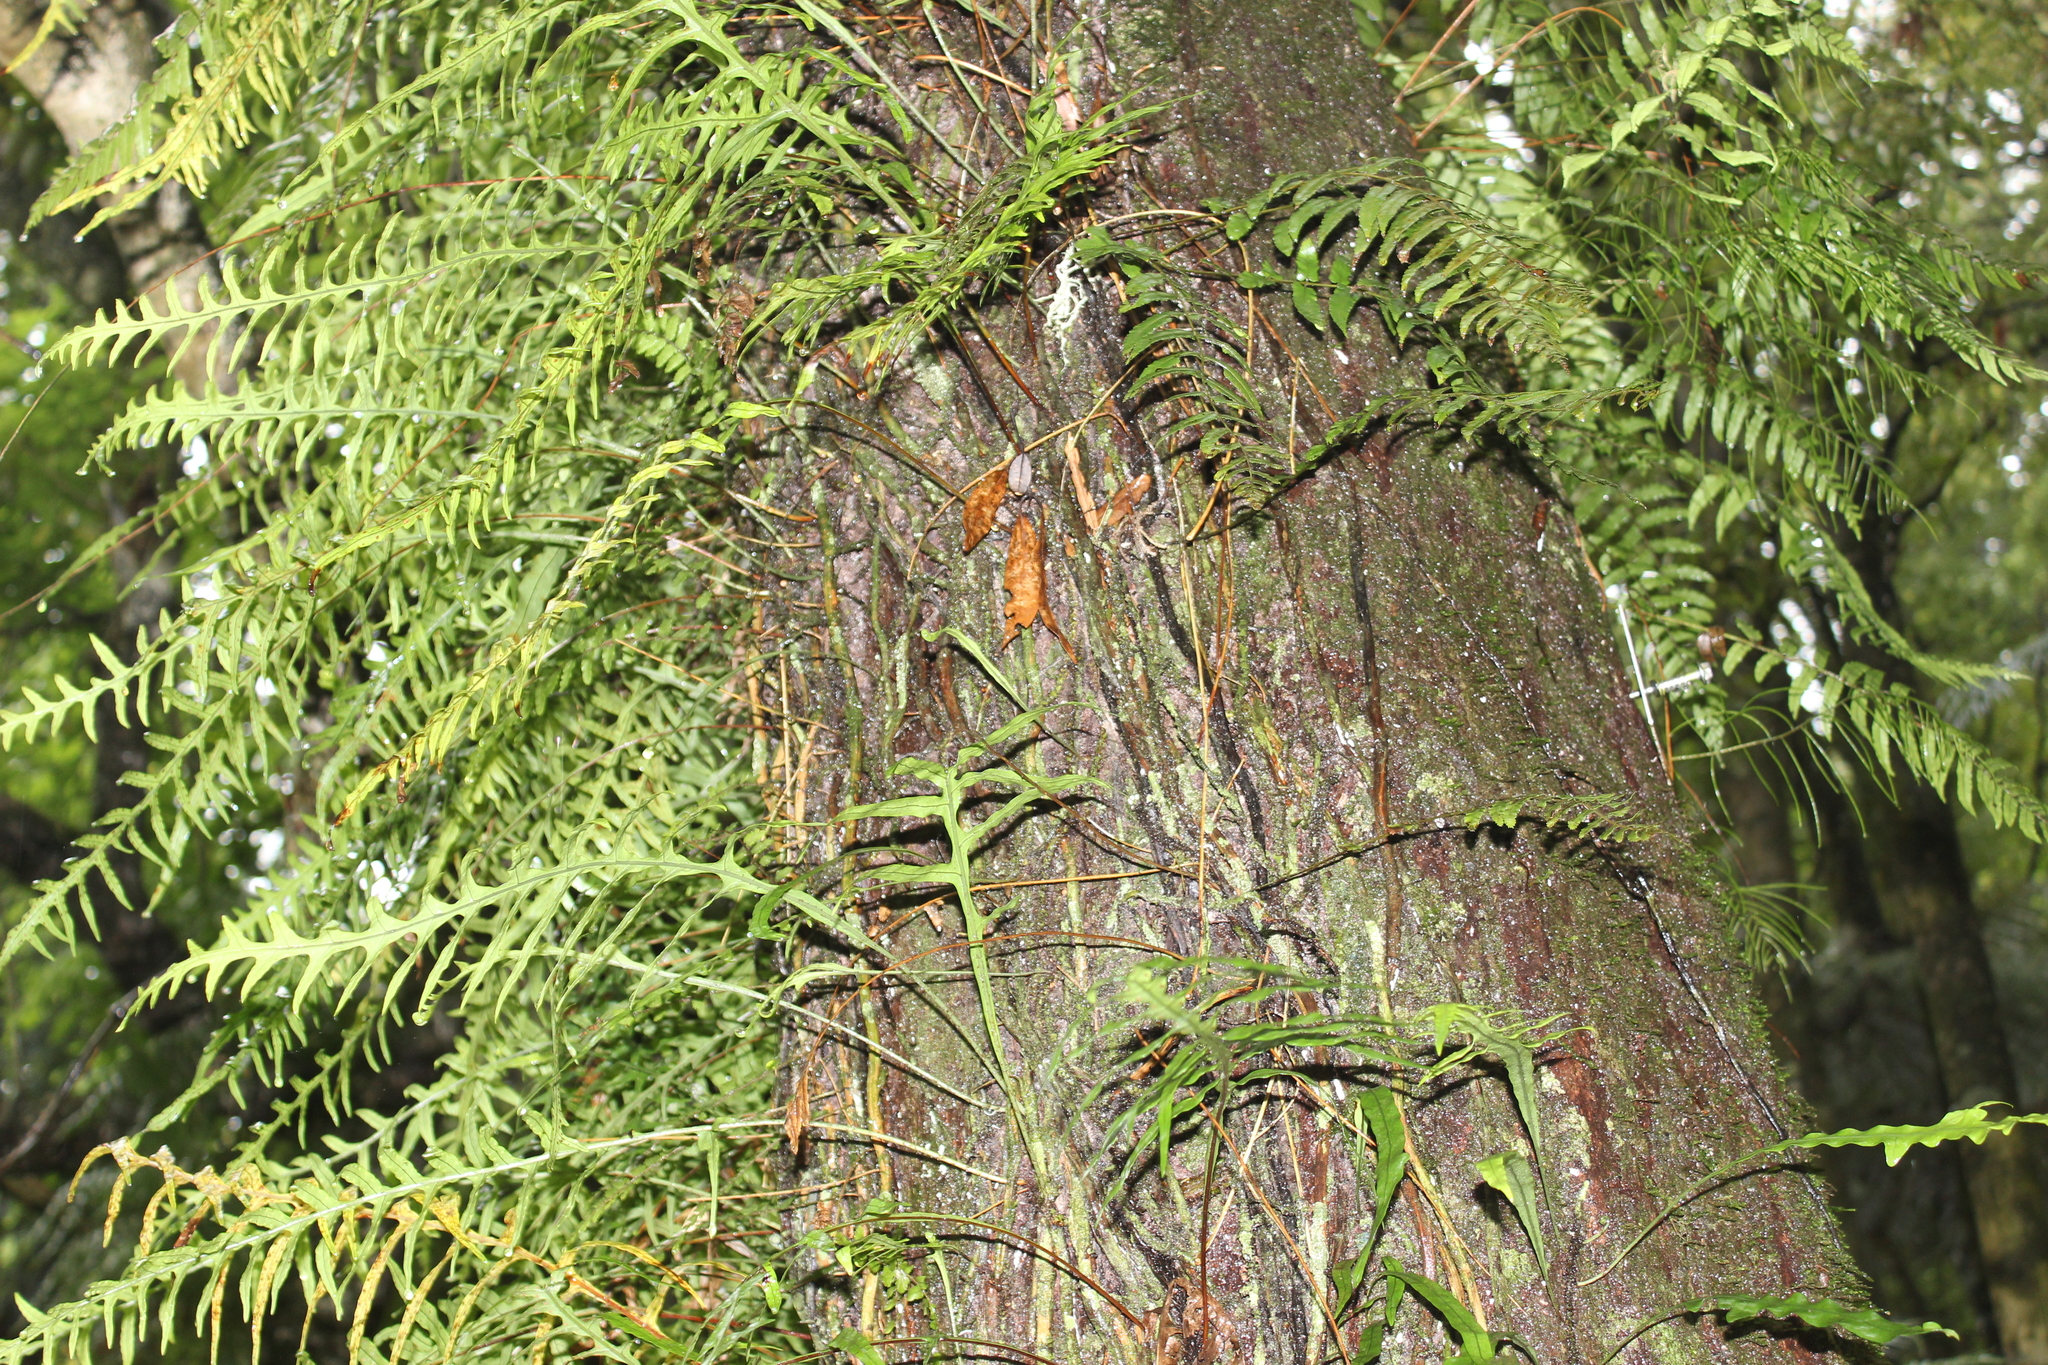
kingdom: Plantae
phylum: Tracheophyta
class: Polypodiopsida
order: Polypodiales
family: Blechnaceae
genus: Icarus
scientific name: Icarus filiformis
